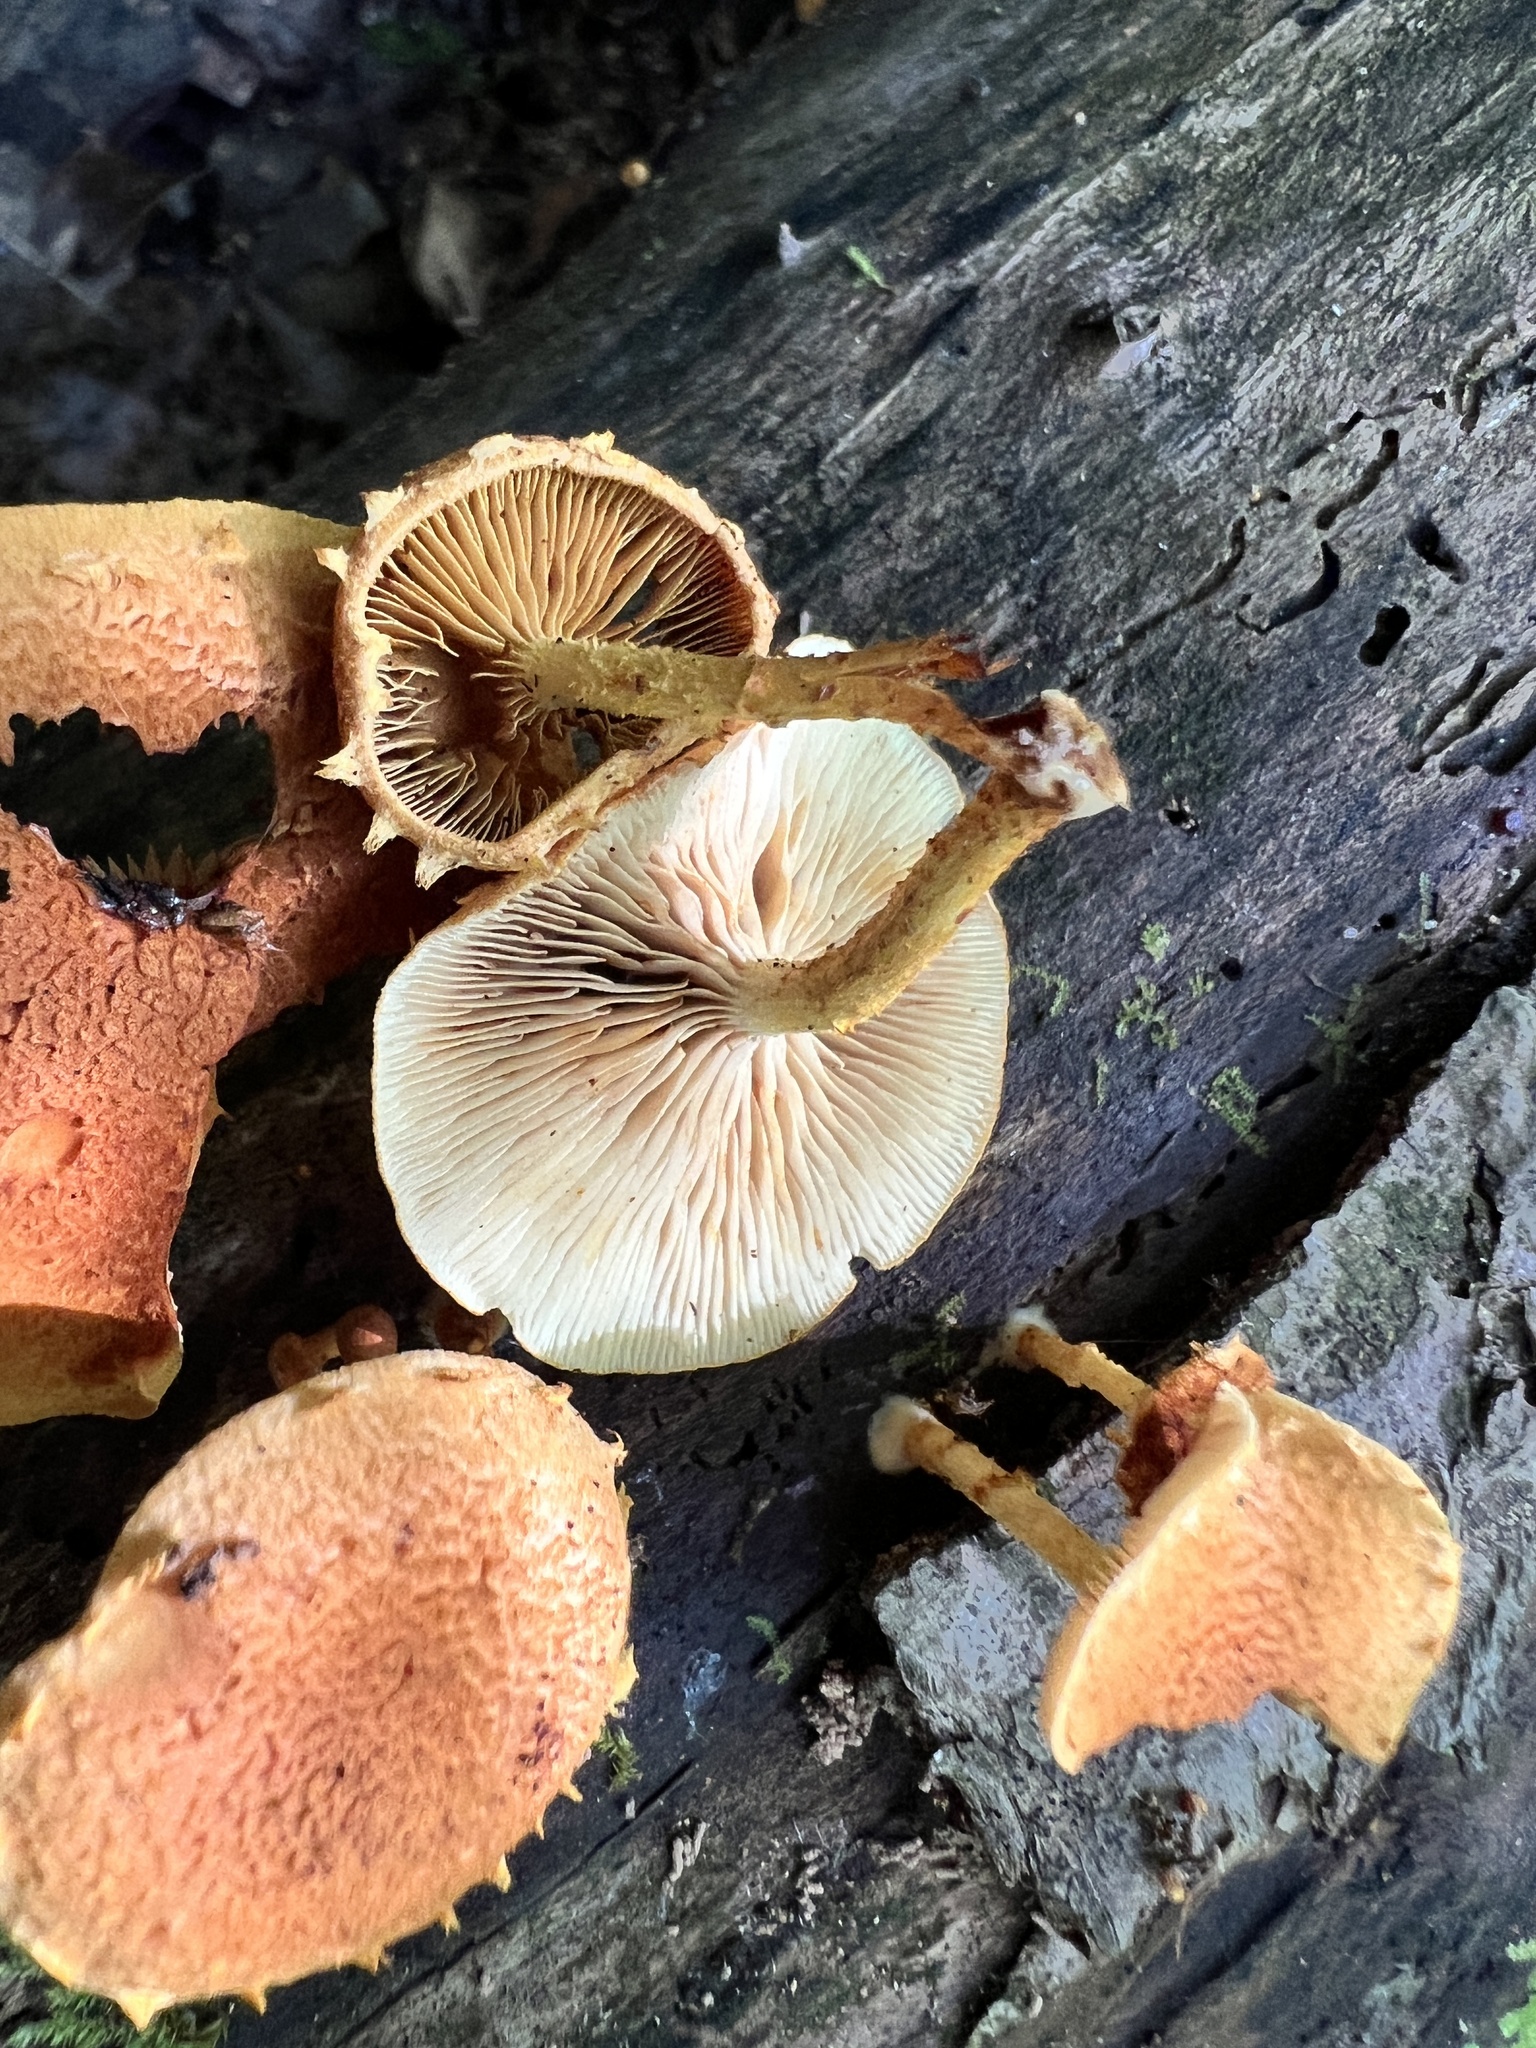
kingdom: Fungi
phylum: Basidiomycota
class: Agaricomycetes
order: Agaricales
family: Tubariaceae
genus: Flammulaster
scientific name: Flammulaster erinaceellus
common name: Powder-scale pholiota
